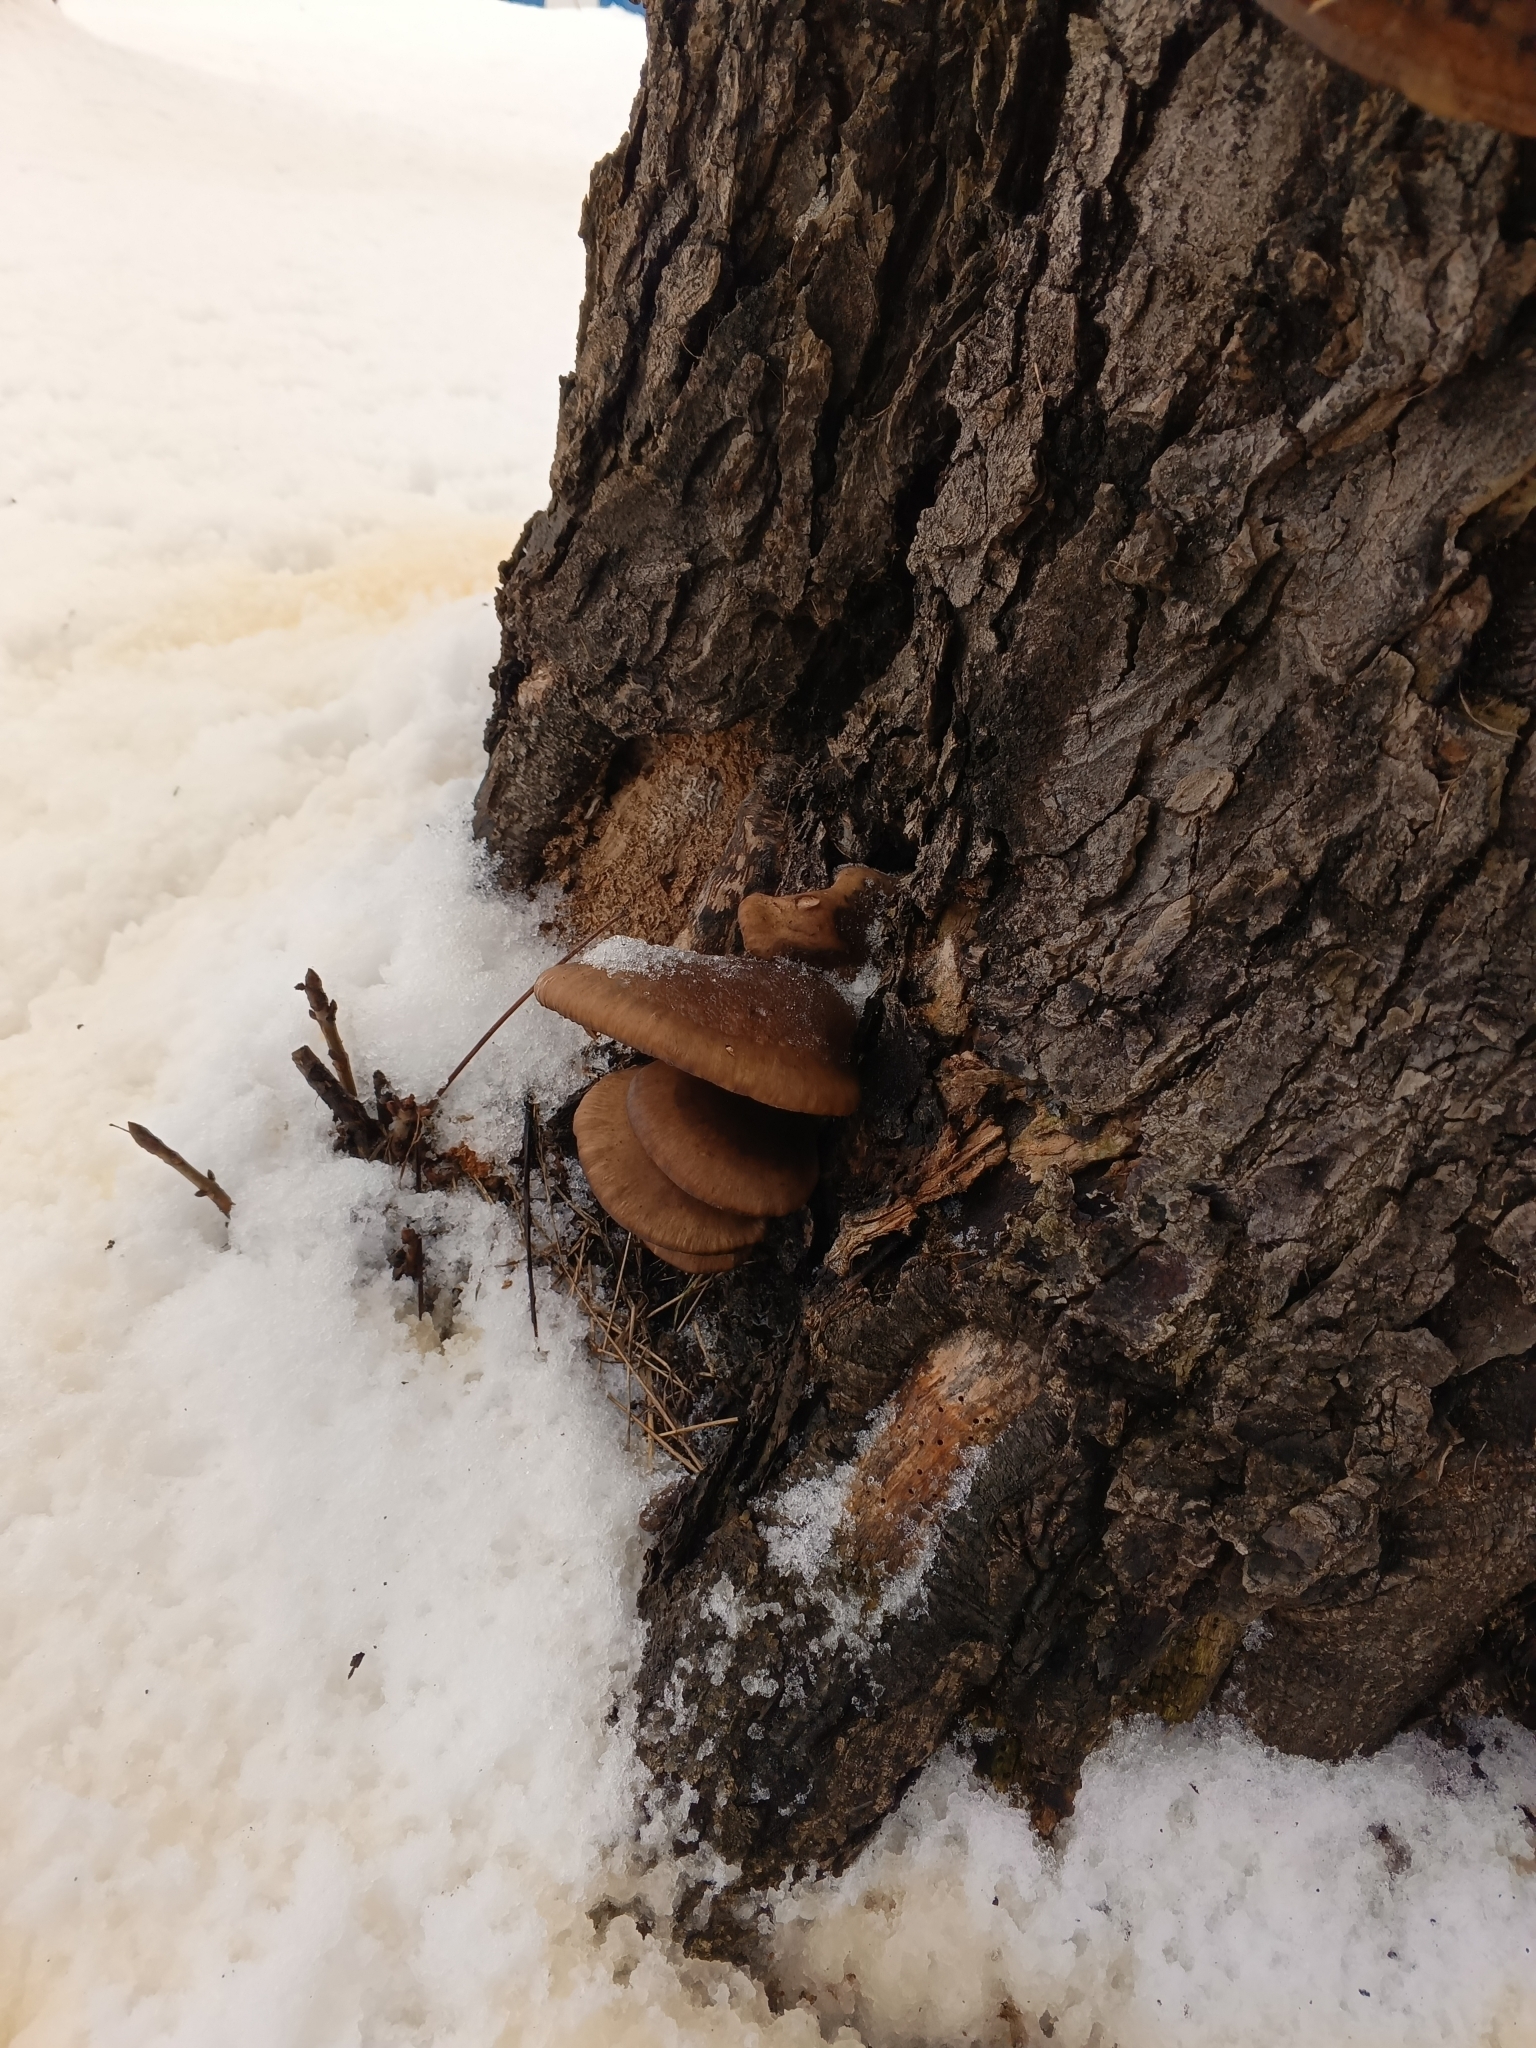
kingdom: Fungi
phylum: Basidiomycota
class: Agaricomycetes
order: Agaricales
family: Pleurotaceae
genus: Pleurotus
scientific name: Pleurotus ostreatus
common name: Oyster mushroom
